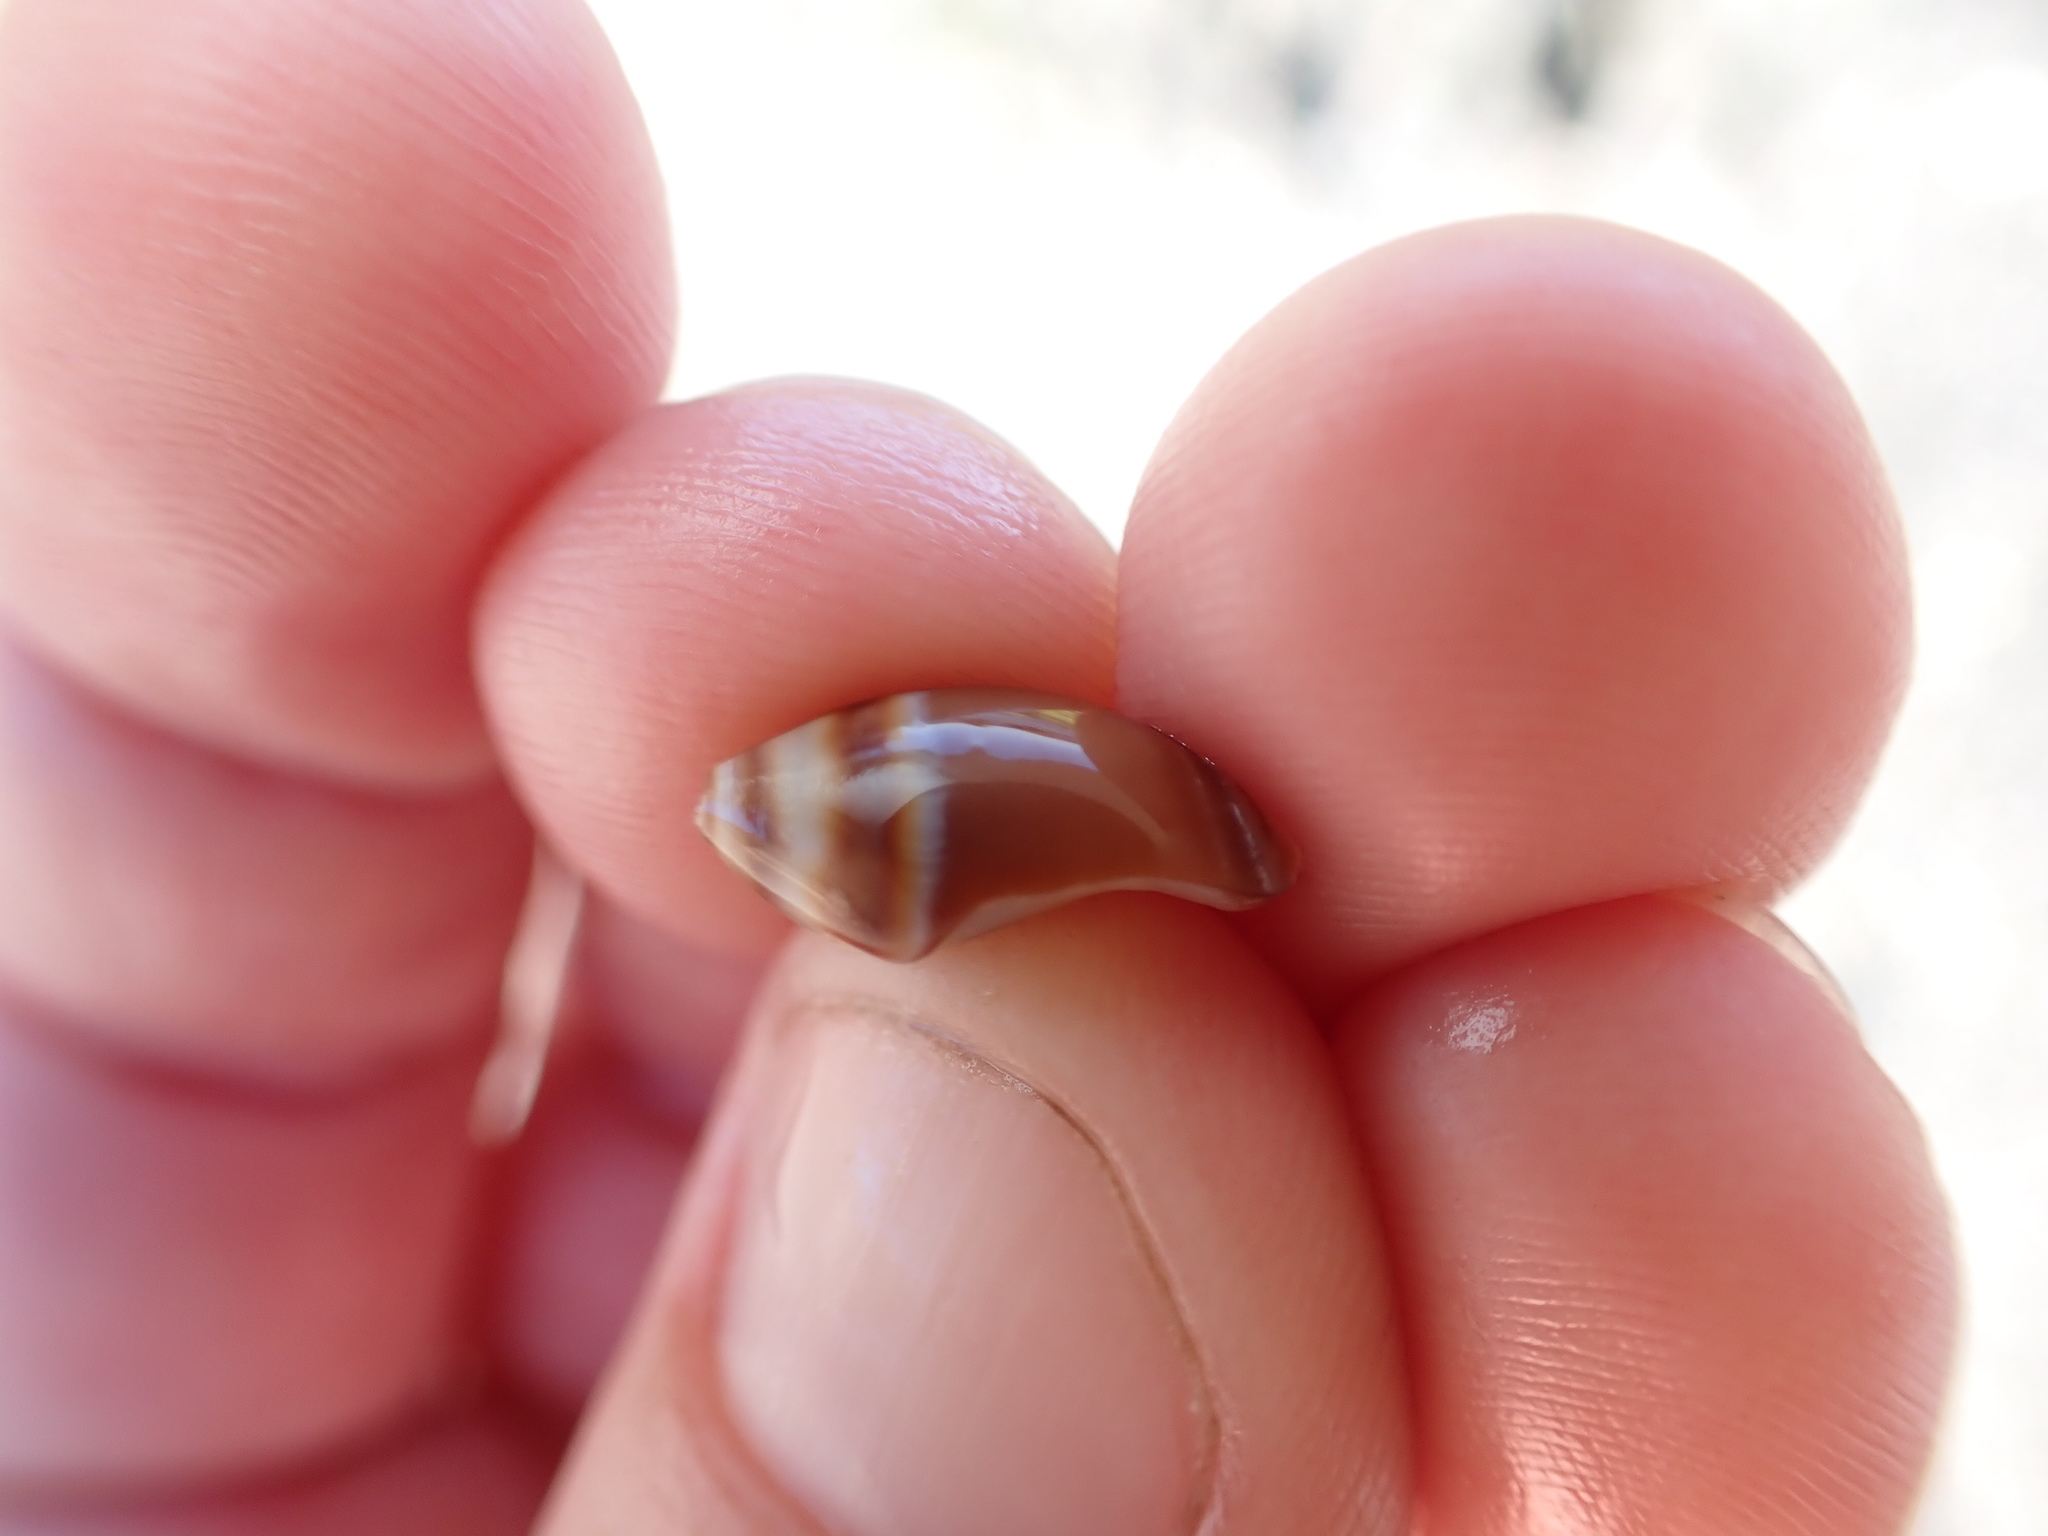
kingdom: Animalia
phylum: Mollusca
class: Gastropoda
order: Neogastropoda
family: Ancillariidae
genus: Amalda
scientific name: Amalda australis
